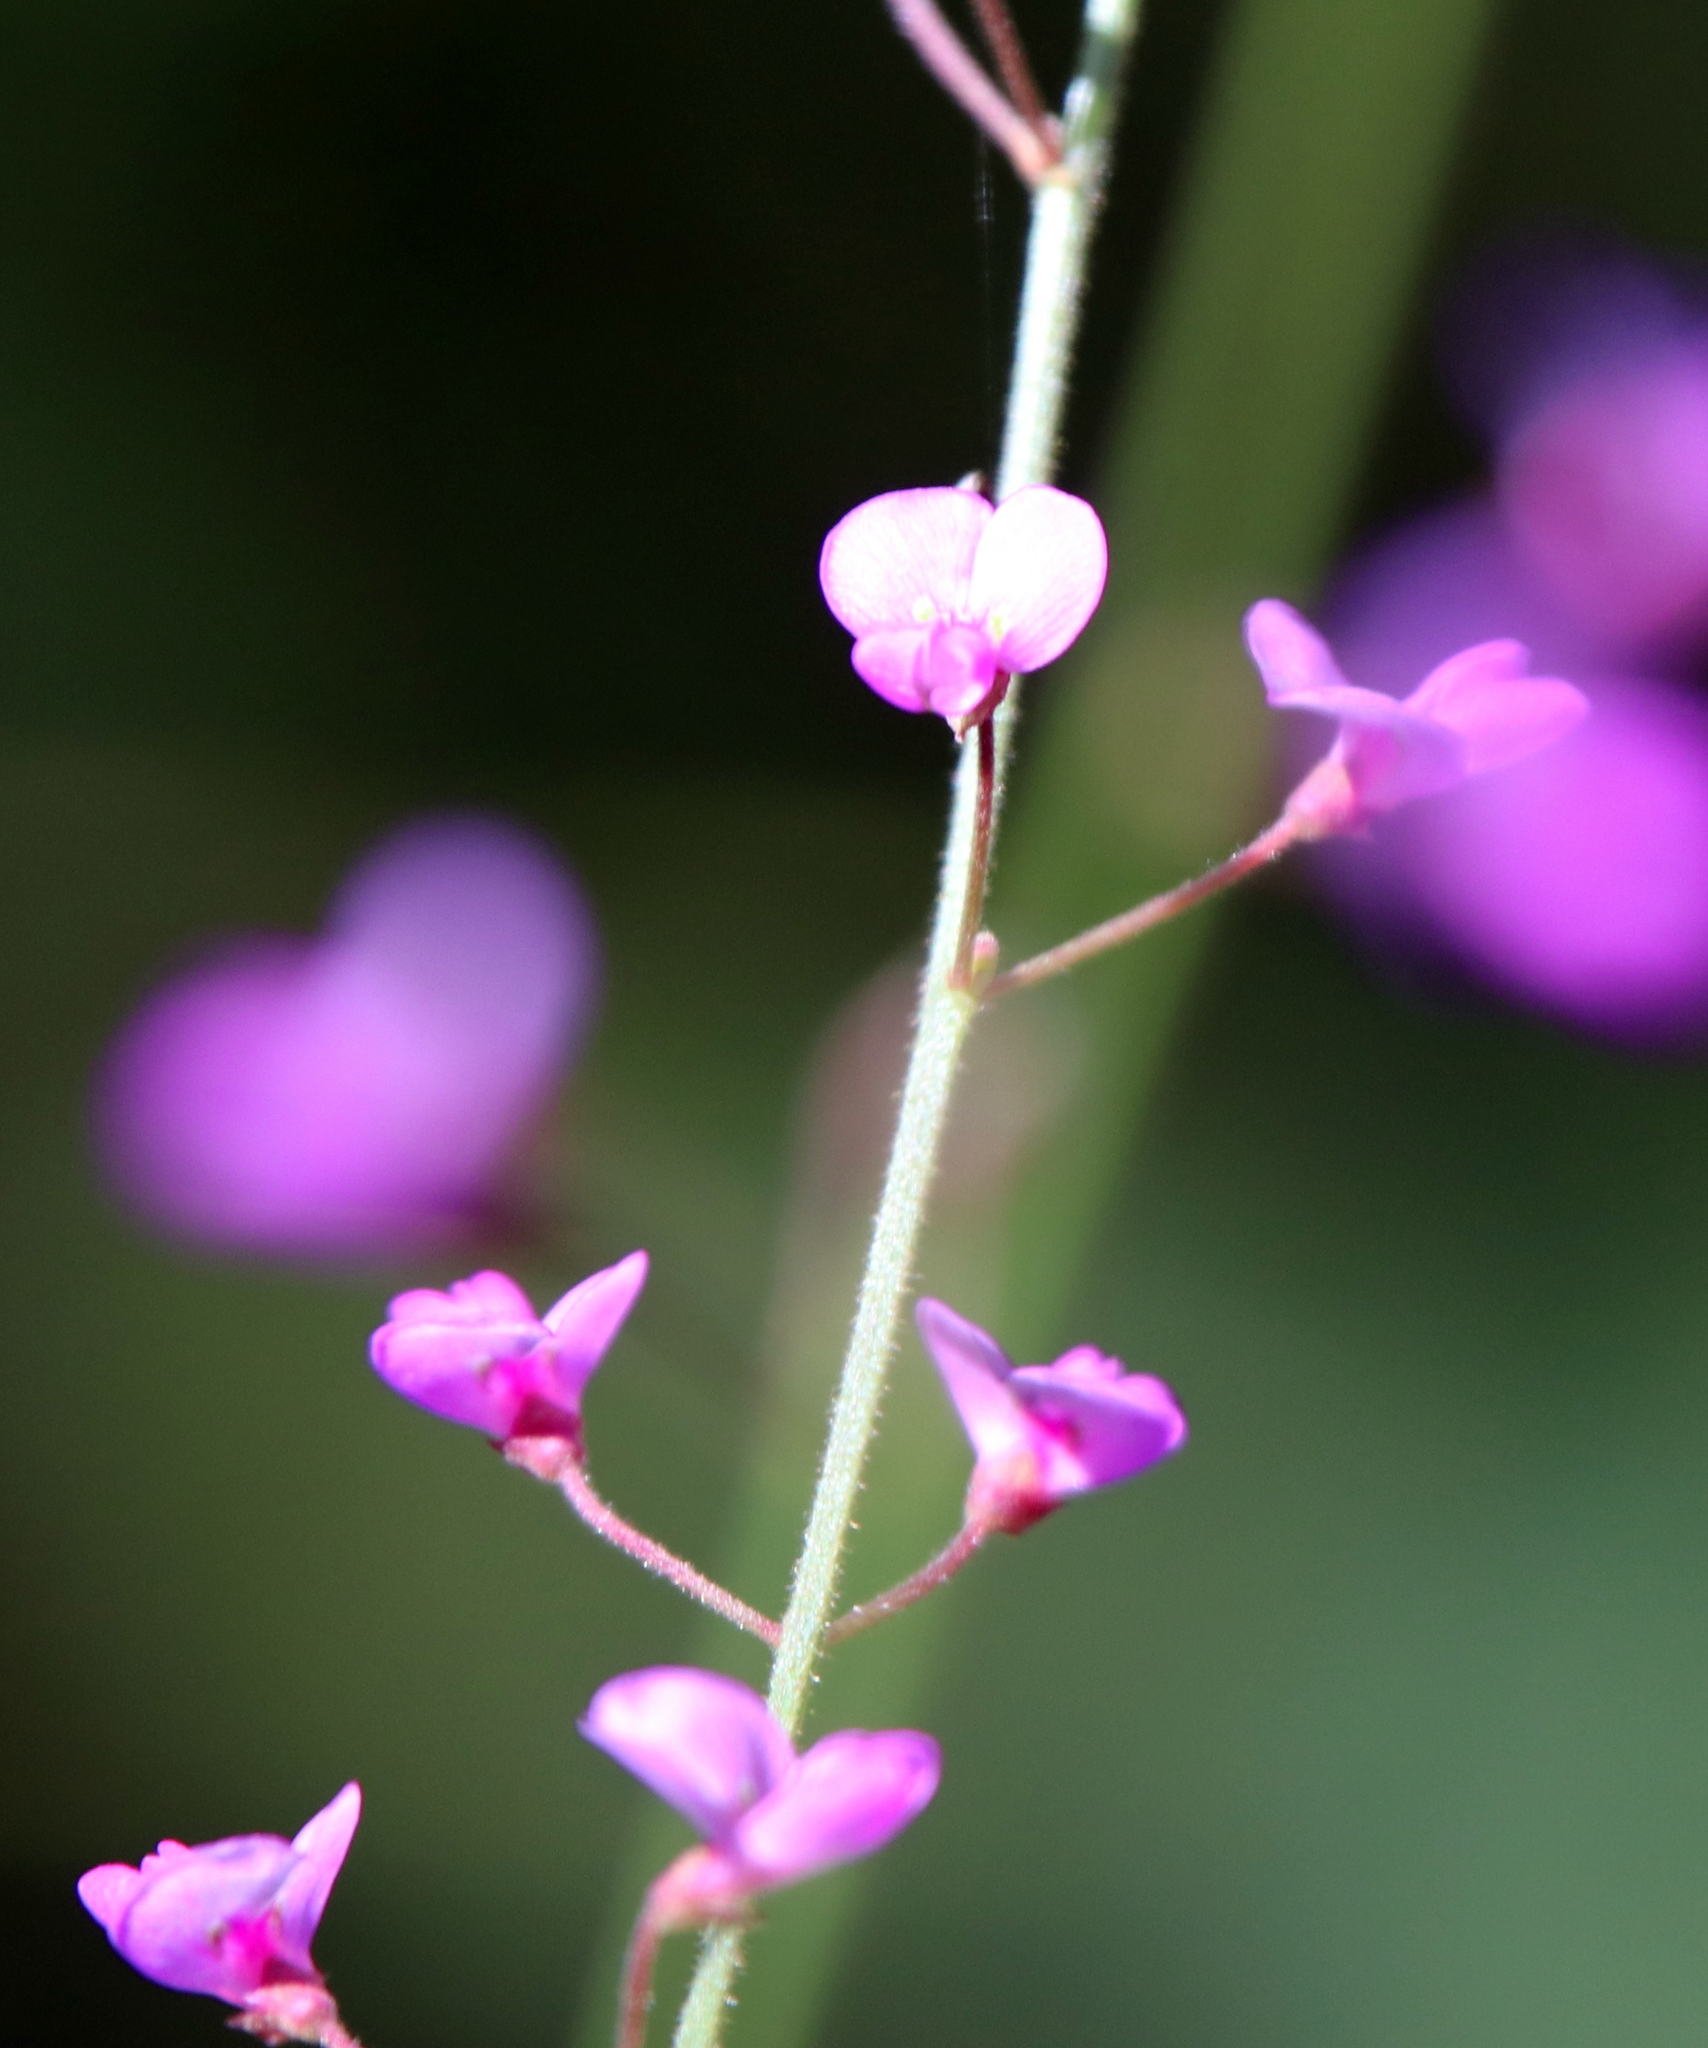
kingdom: Plantae
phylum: Tracheophyta
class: Magnoliopsida
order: Fabales
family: Fabaceae
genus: Desmodium
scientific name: Desmodium strictum
